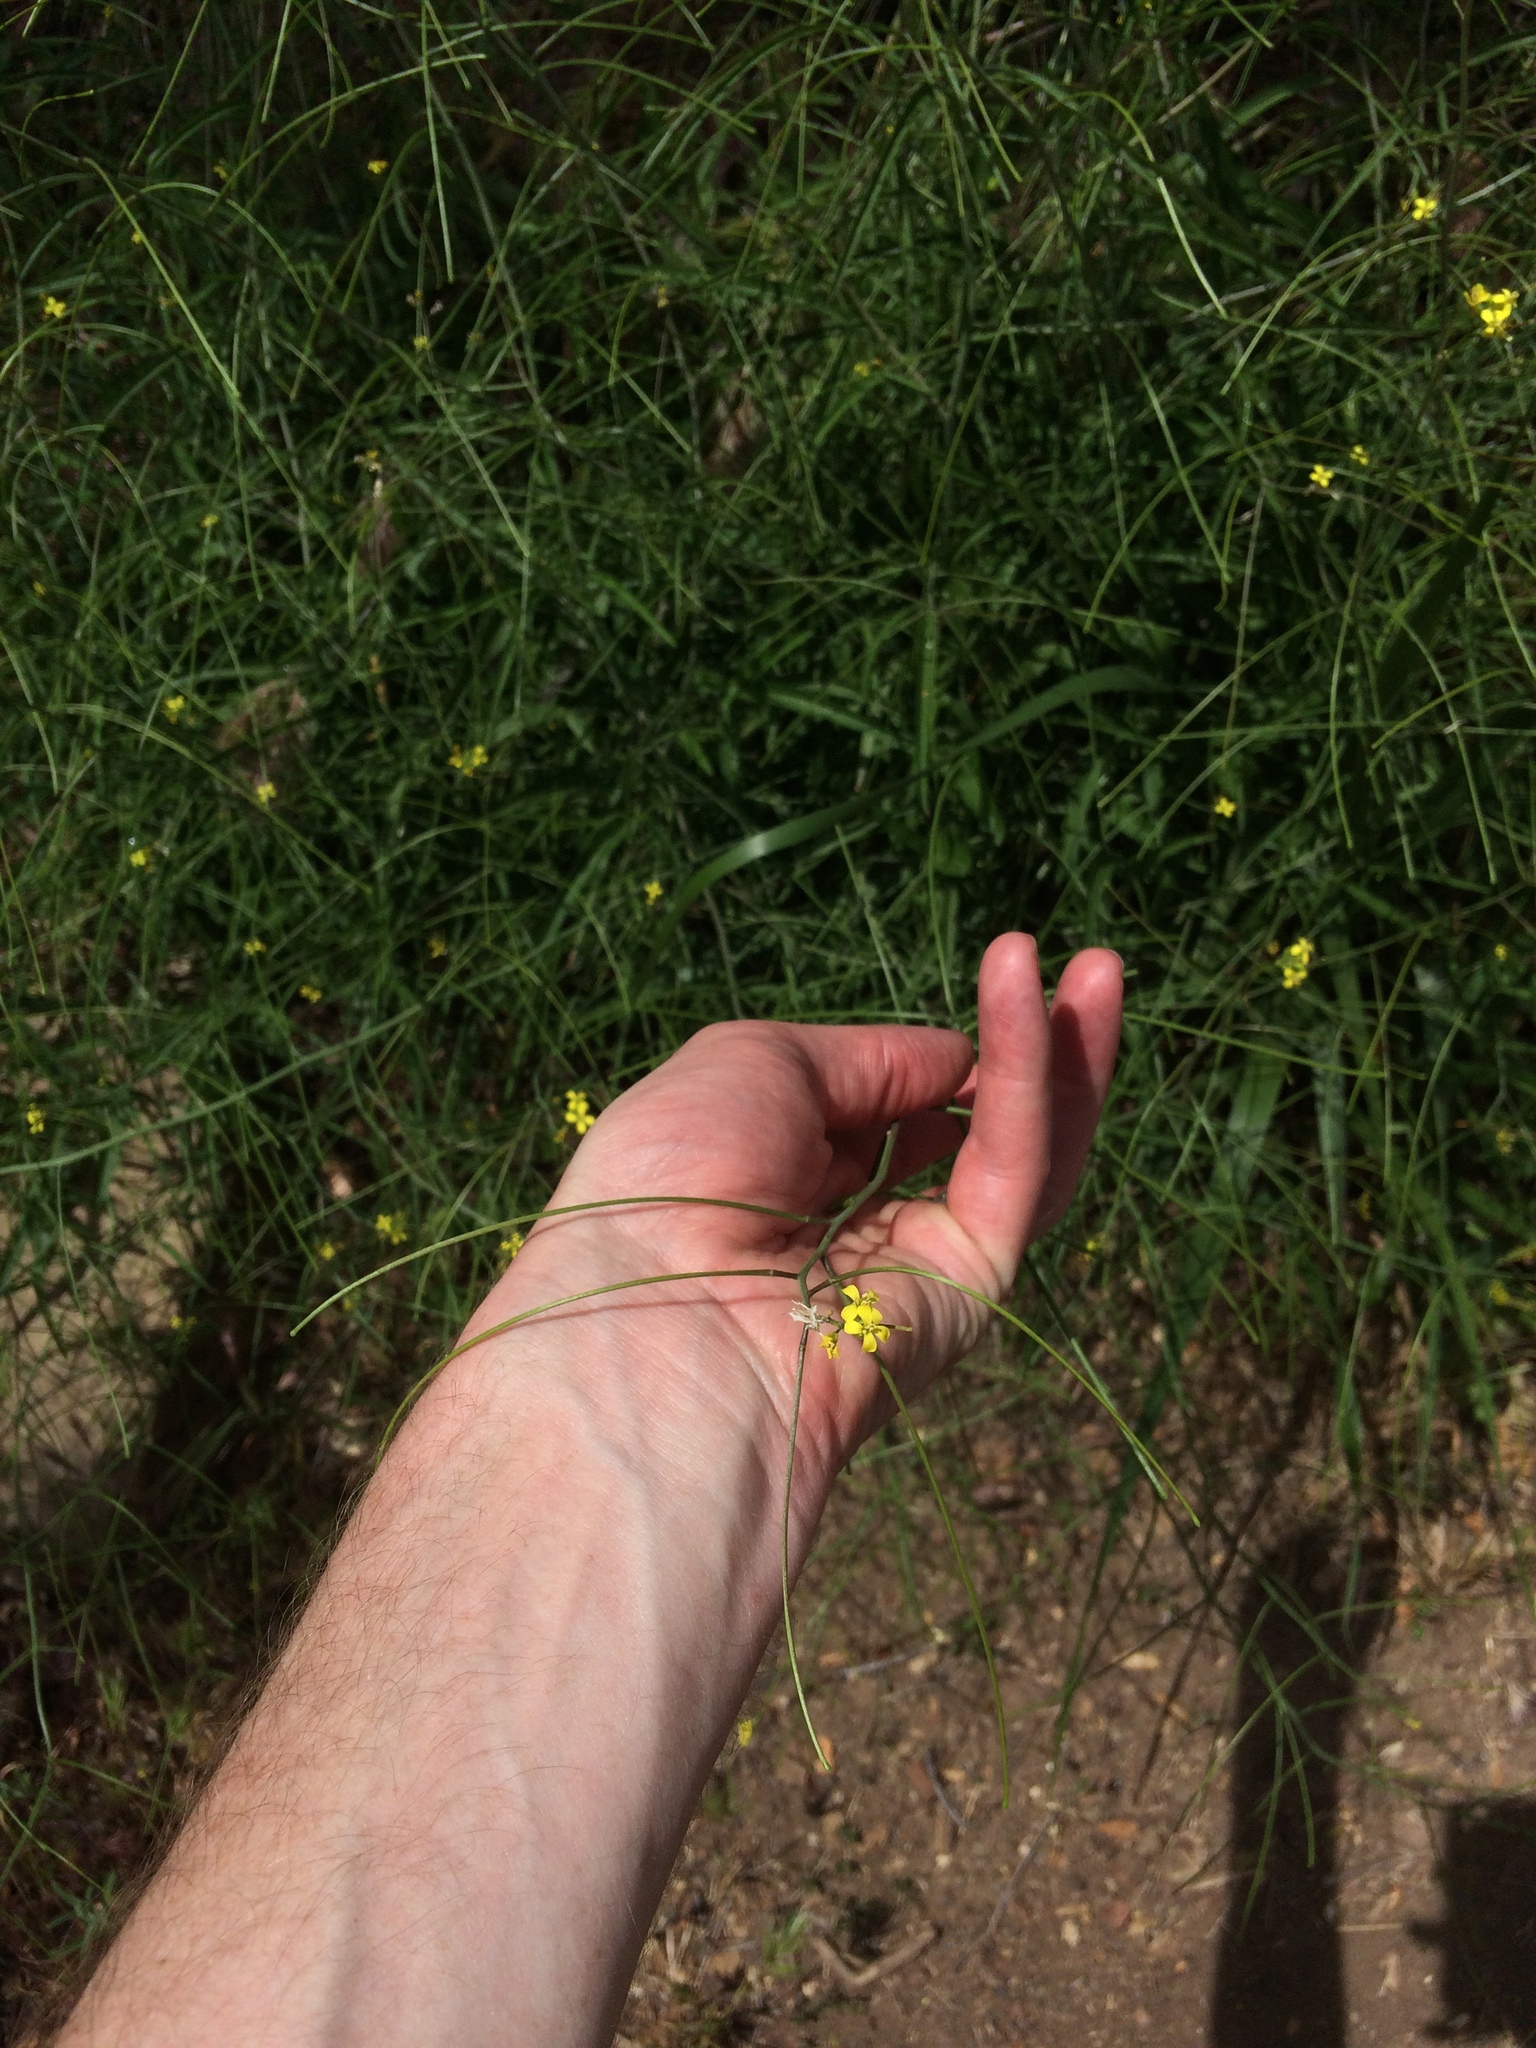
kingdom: Plantae
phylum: Tracheophyta
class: Magnoliopsida
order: Brassicales
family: Brassicaceae
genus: Sisymbrium
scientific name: Sisymbrium orientale
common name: Eastern rocket
